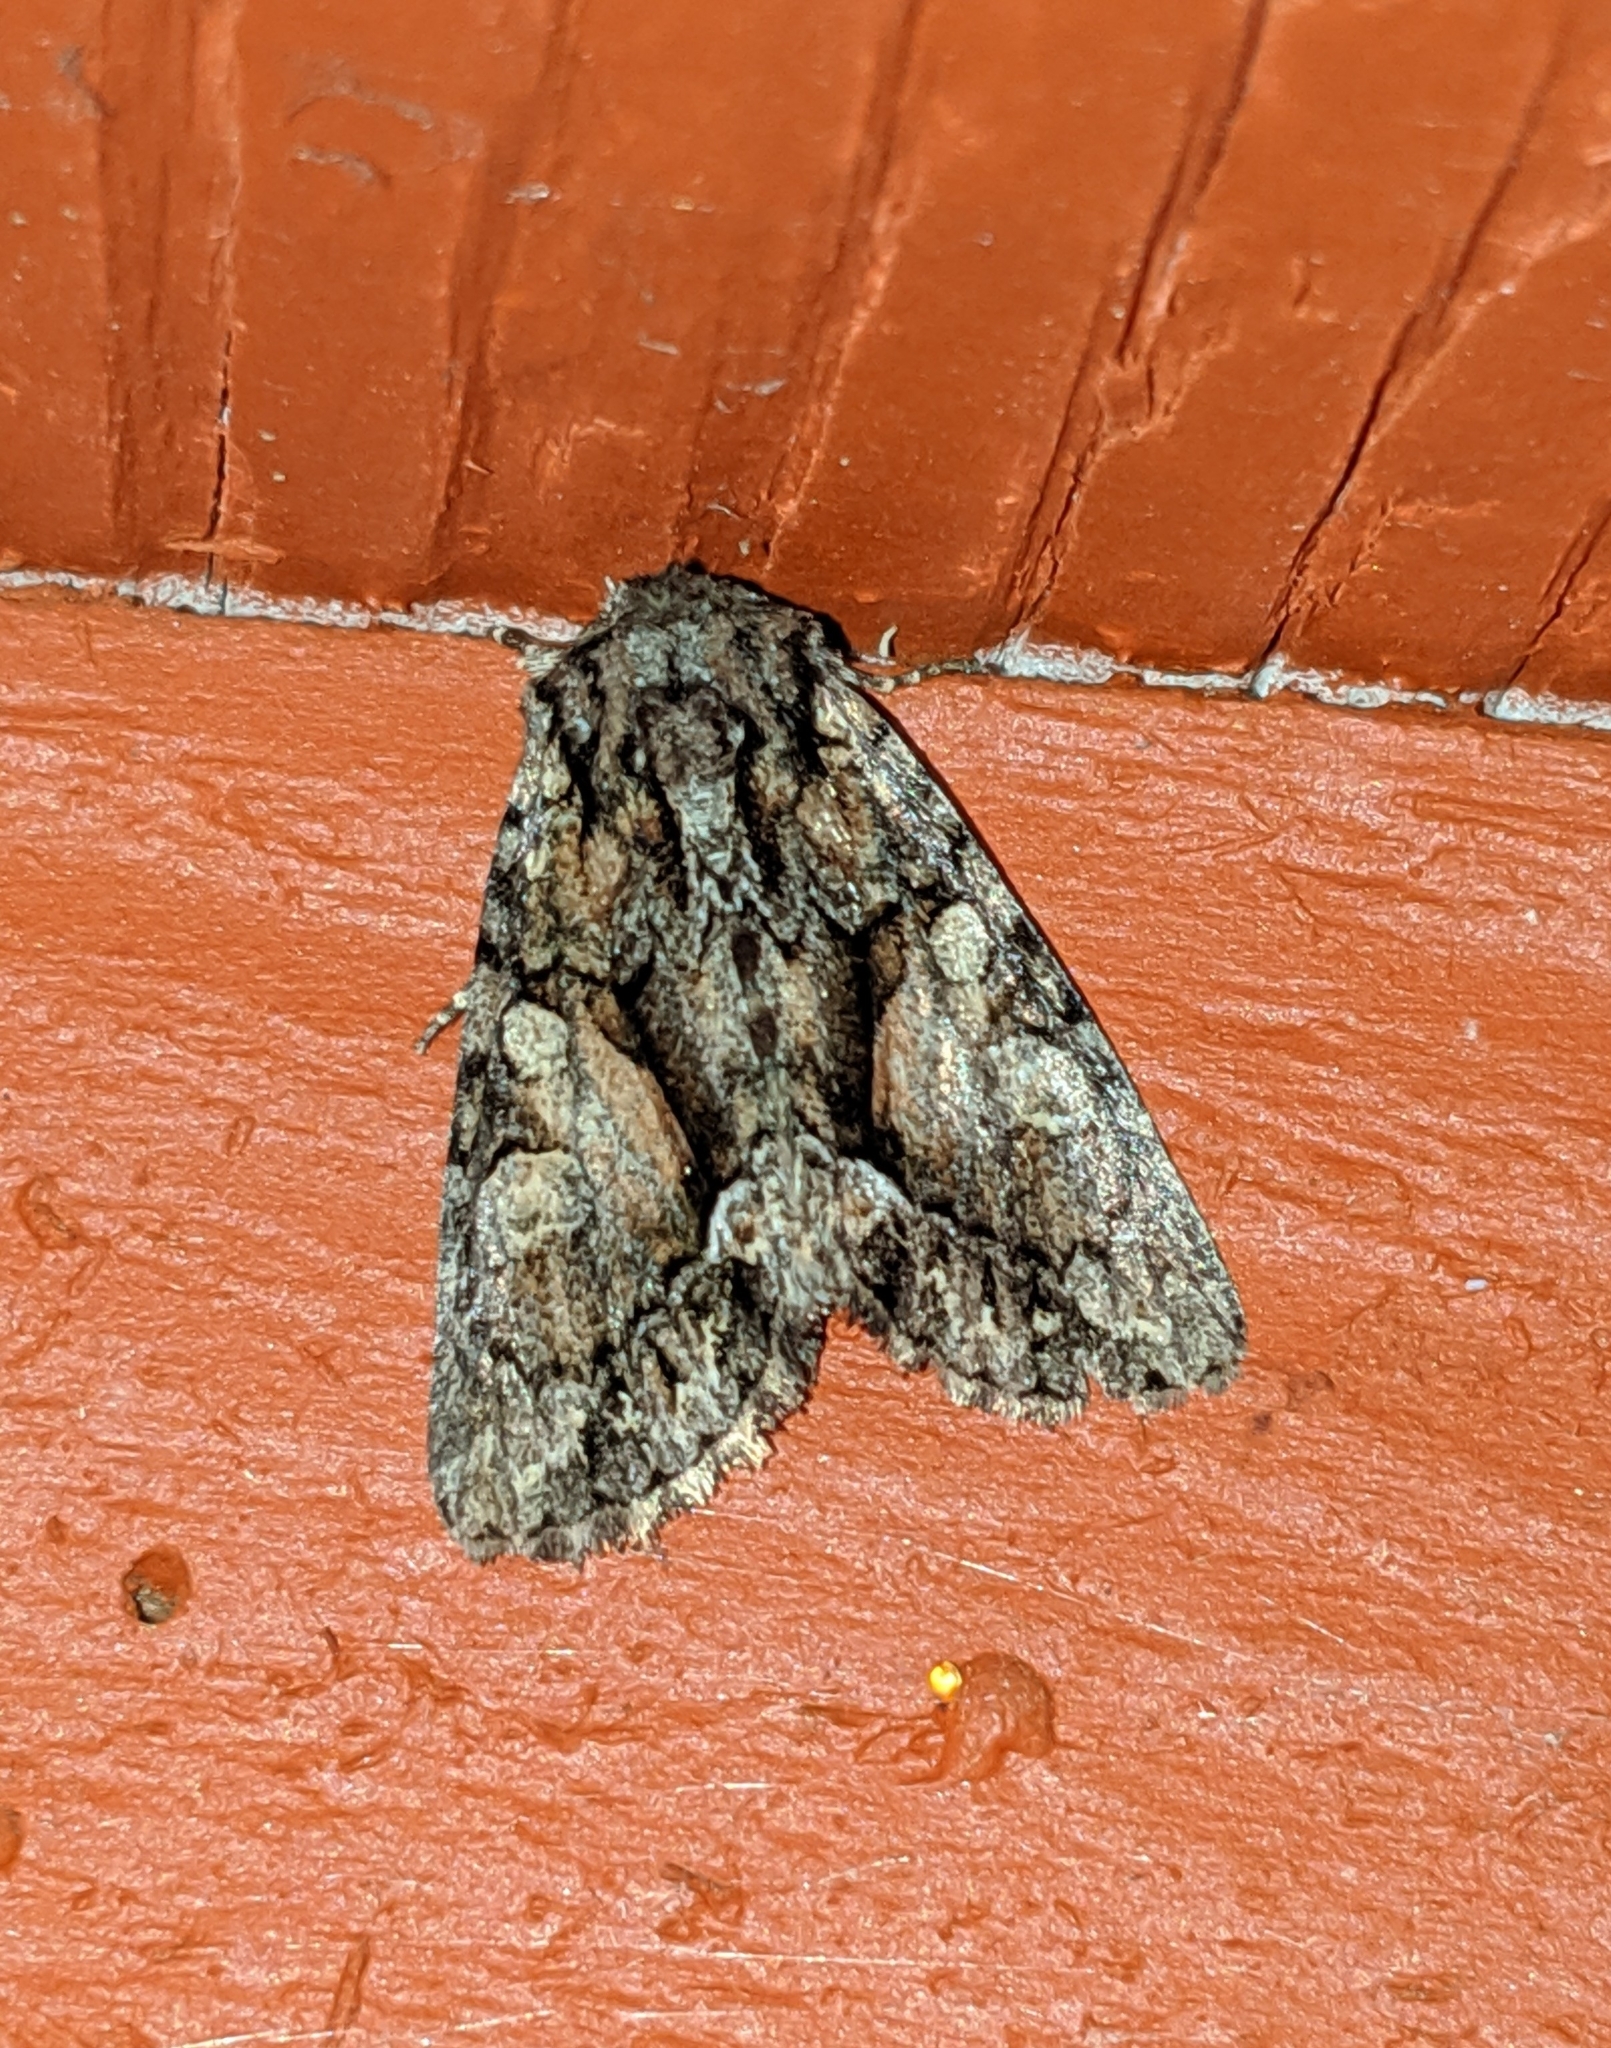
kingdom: Animalia
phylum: Arthropoda
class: Insecta
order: Lepidoptera
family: Noctuidae
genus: Oligia
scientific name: Oligia divesta
